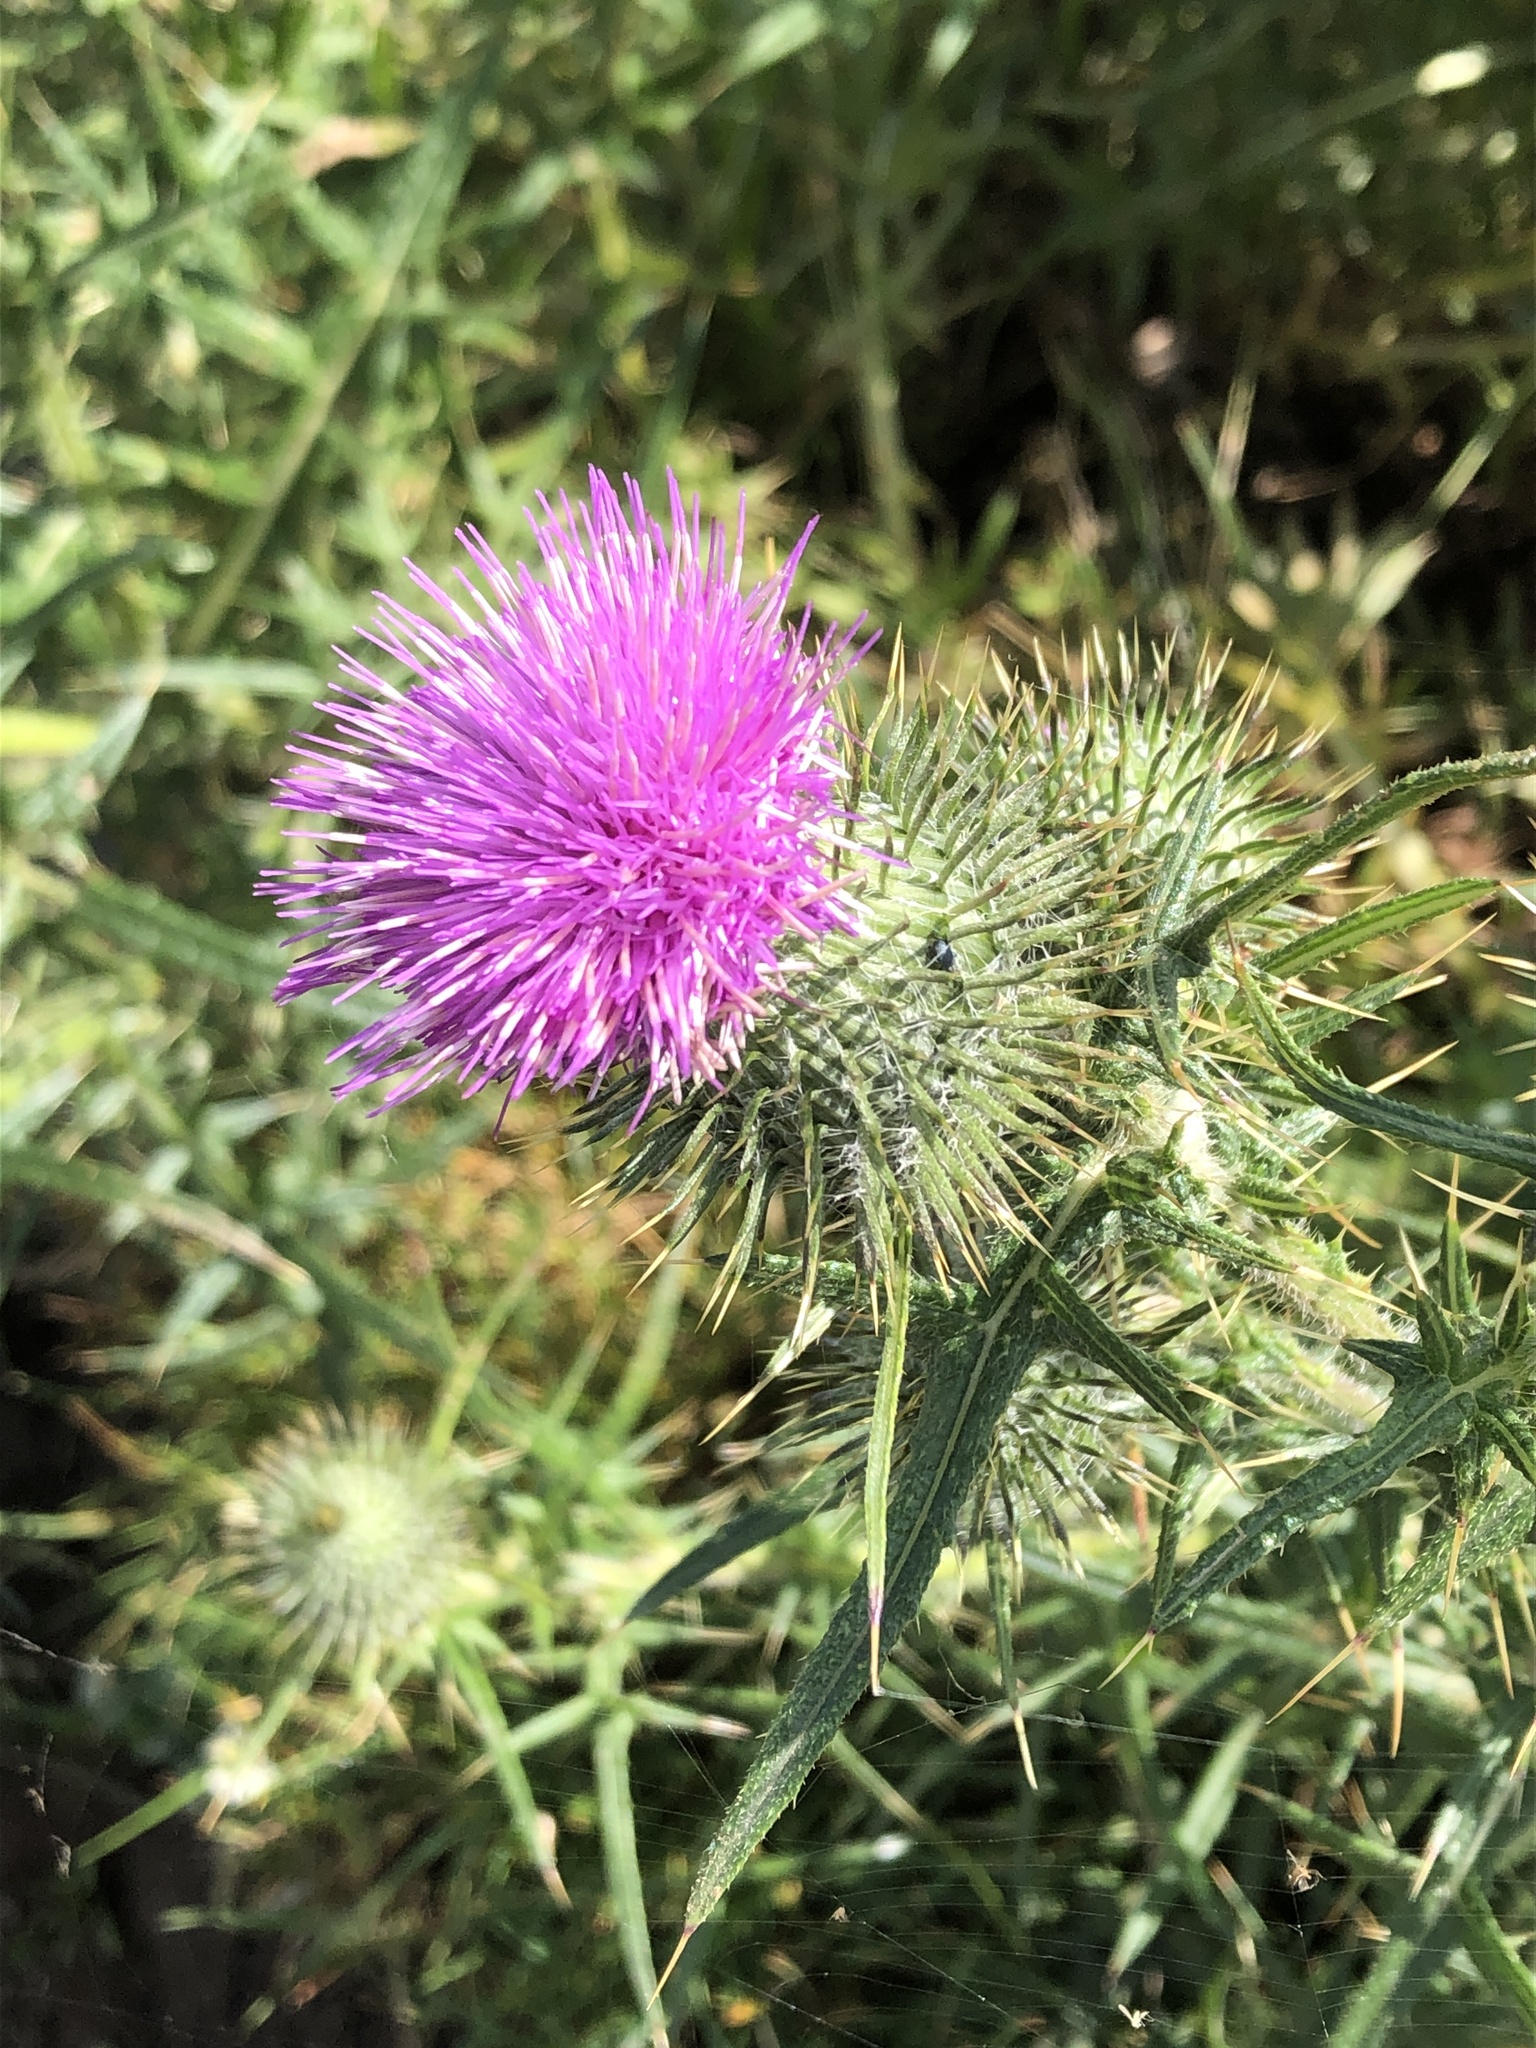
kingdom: Plantae
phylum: Tracheophyta
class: Magnoliopsida
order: Asterales
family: Asteraceae
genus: Cirsium
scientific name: Cirsium vulgare
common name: Bull thistle
